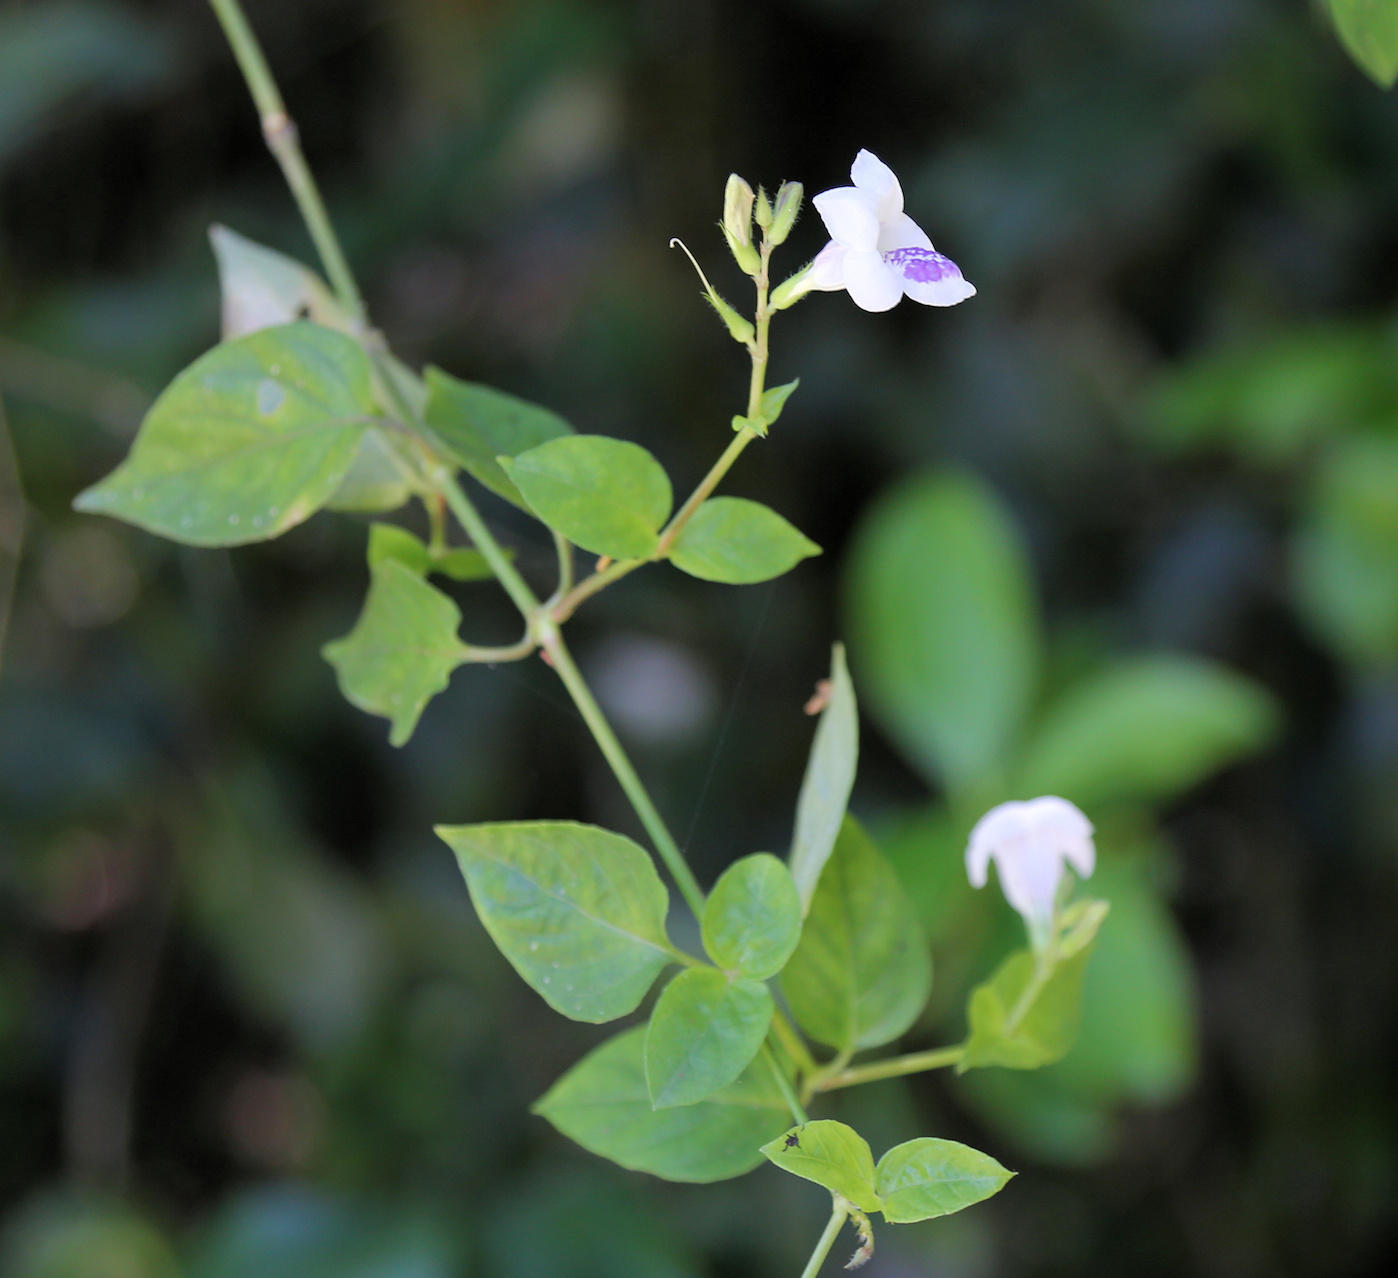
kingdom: Plantae
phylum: Tracheophyta
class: Magnoliopsida
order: Lamiales
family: Acanthaceae
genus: Asystasia
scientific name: Asystasia intrusa
